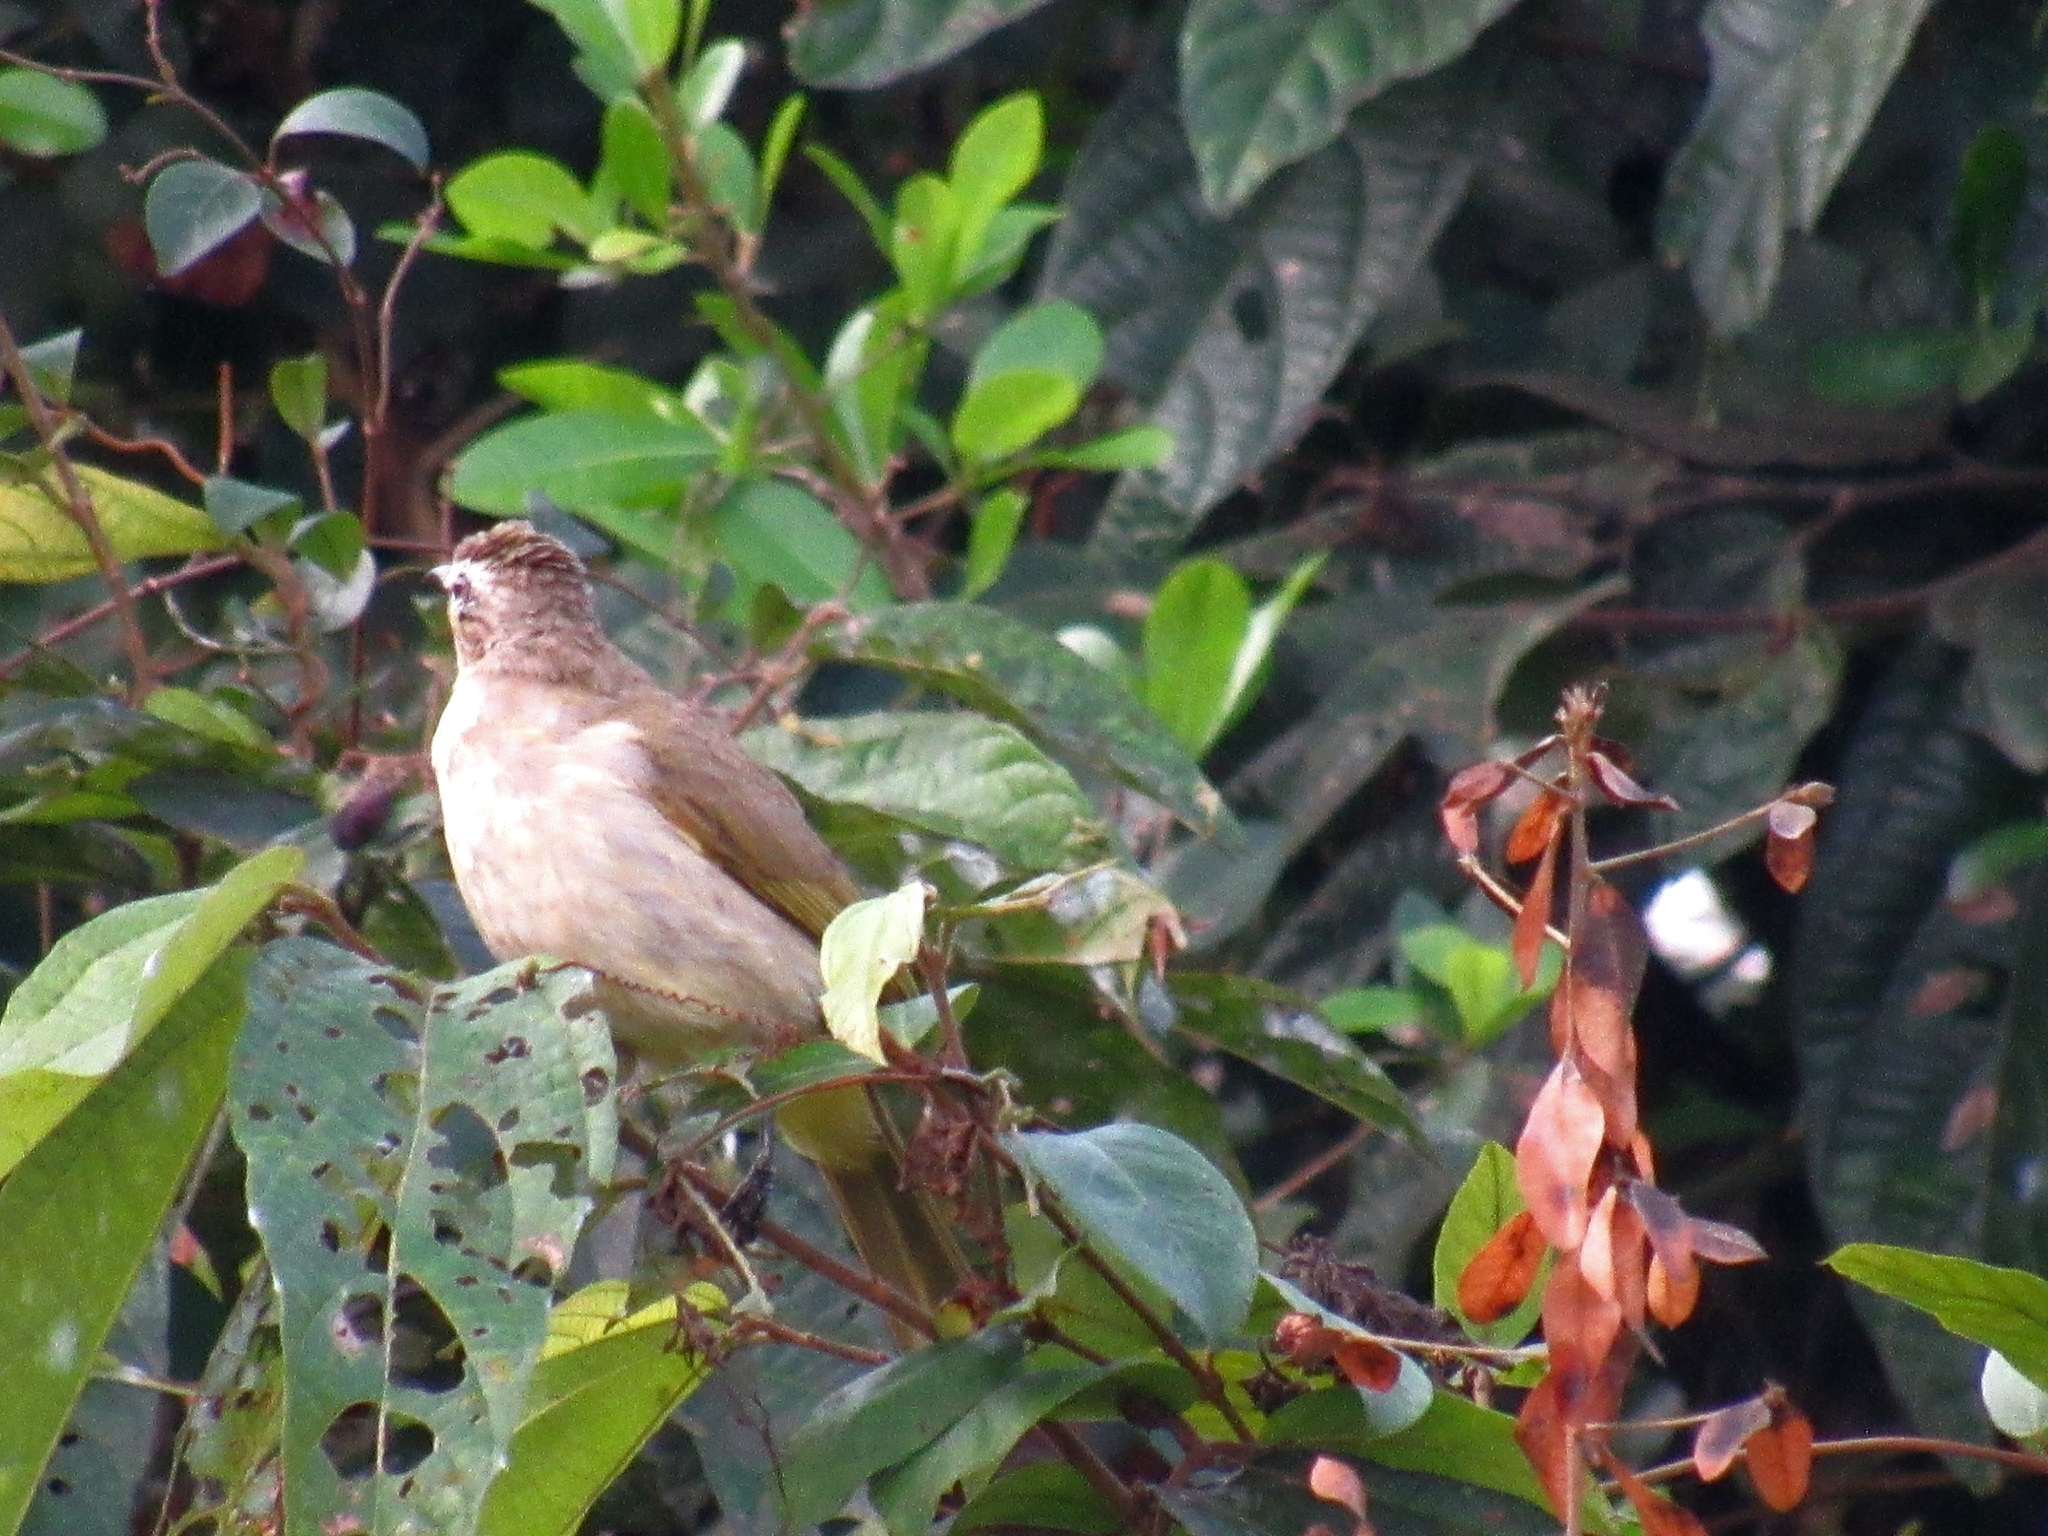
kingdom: Animalia
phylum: Chordata
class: Aves
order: Passeriformes
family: Pycnonotidae
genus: Pycnonotus
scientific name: Pycnonotus luteolus
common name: White-browed bulbul
